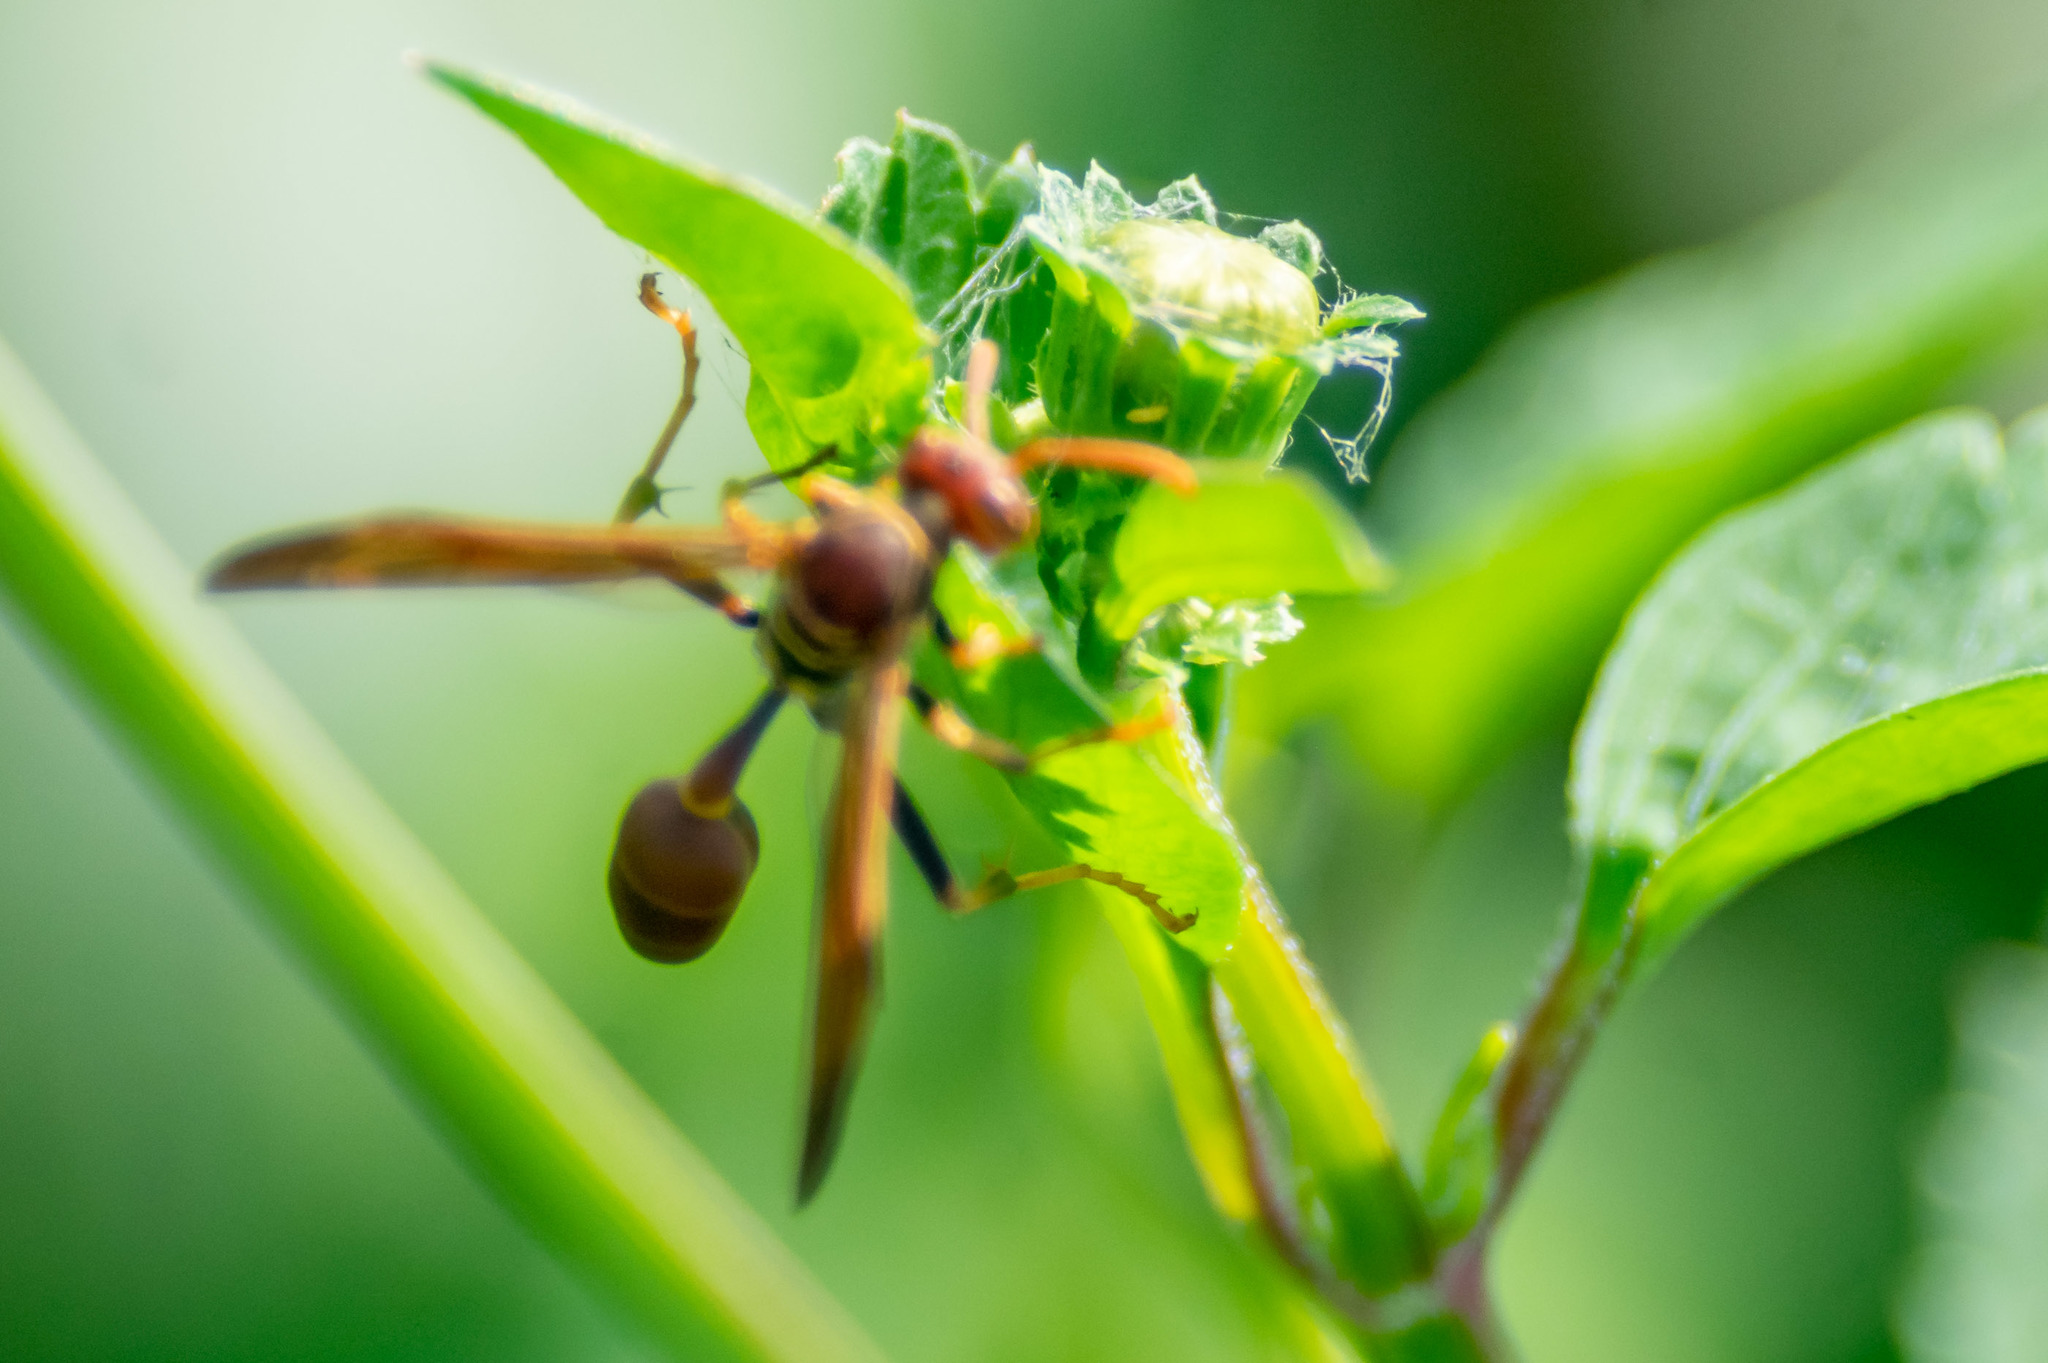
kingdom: Animalia
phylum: Arthropoda
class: Insecta
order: Hymenoptera
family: Vespidae
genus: Mischocyttarus
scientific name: Mischocyttarus mexicanus
